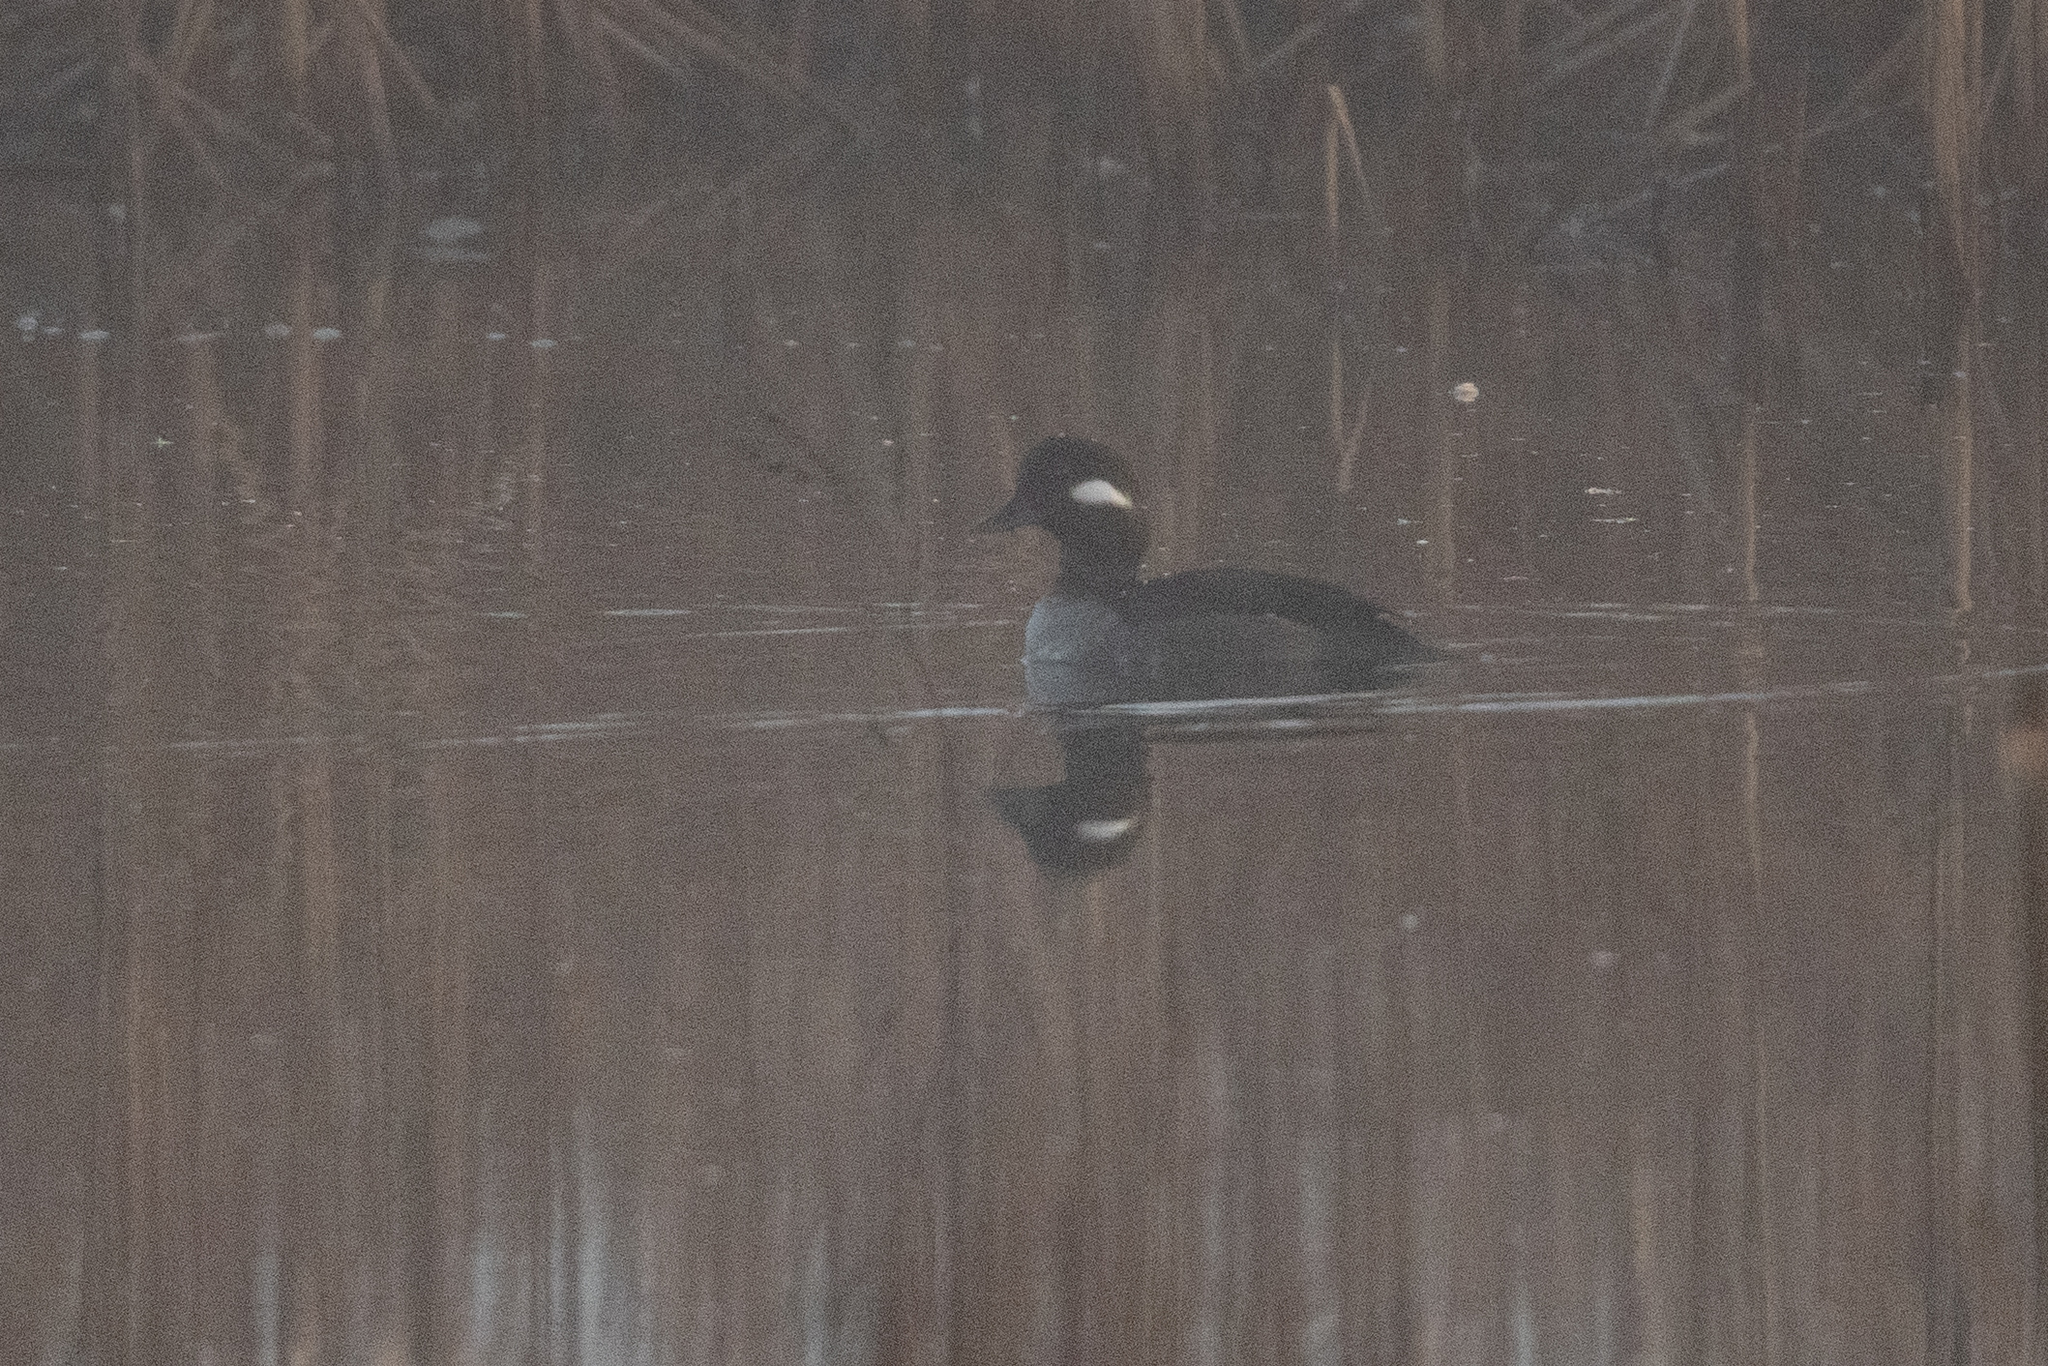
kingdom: Animalia
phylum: Chordata
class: Aves
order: Anseriformes
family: Anatidae
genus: Bucephala
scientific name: Bucephala albeola
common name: Bufflehead
